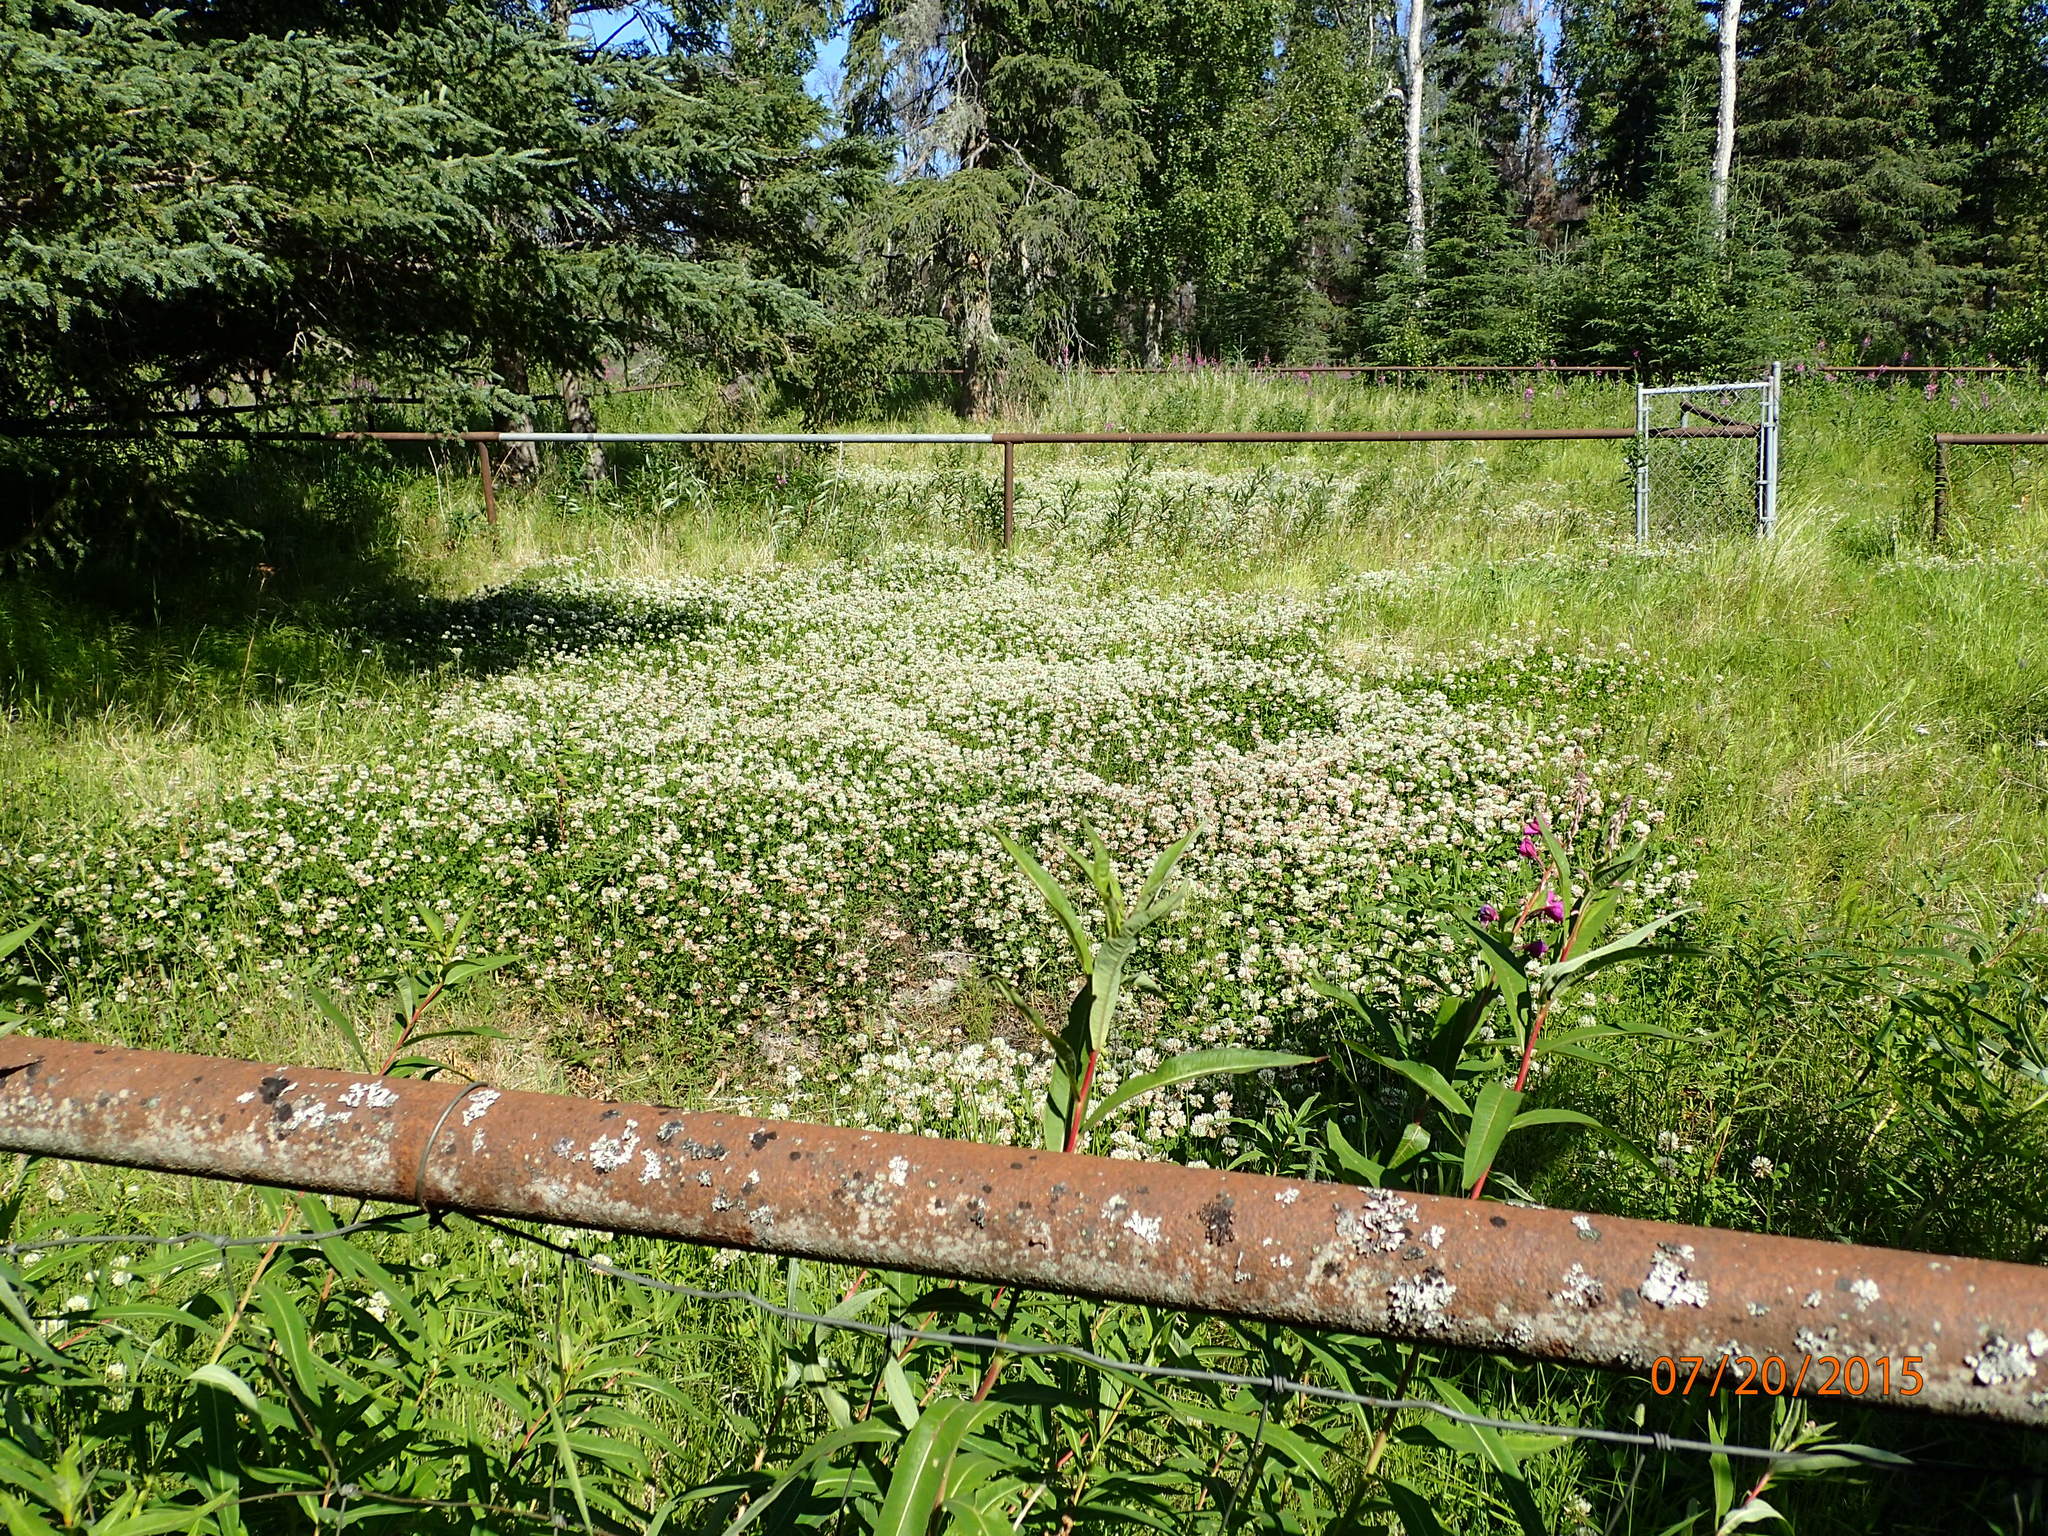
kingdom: Plantae
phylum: Tracheophyta
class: Magnoliopsida
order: Fabales
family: Fabaceae
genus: Trifolium
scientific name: Trifolium repens
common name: White clover
